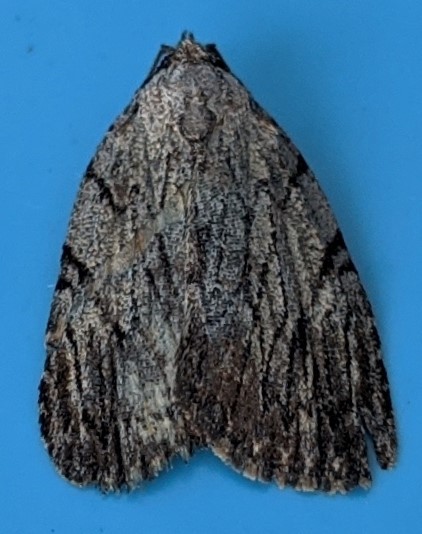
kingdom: Animalia
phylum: Arthropoda
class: Insecta
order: Lepidoptera
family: Noctuidae
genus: Balsa
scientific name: Balsa tristrigella
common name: Three-lined balsa moth
